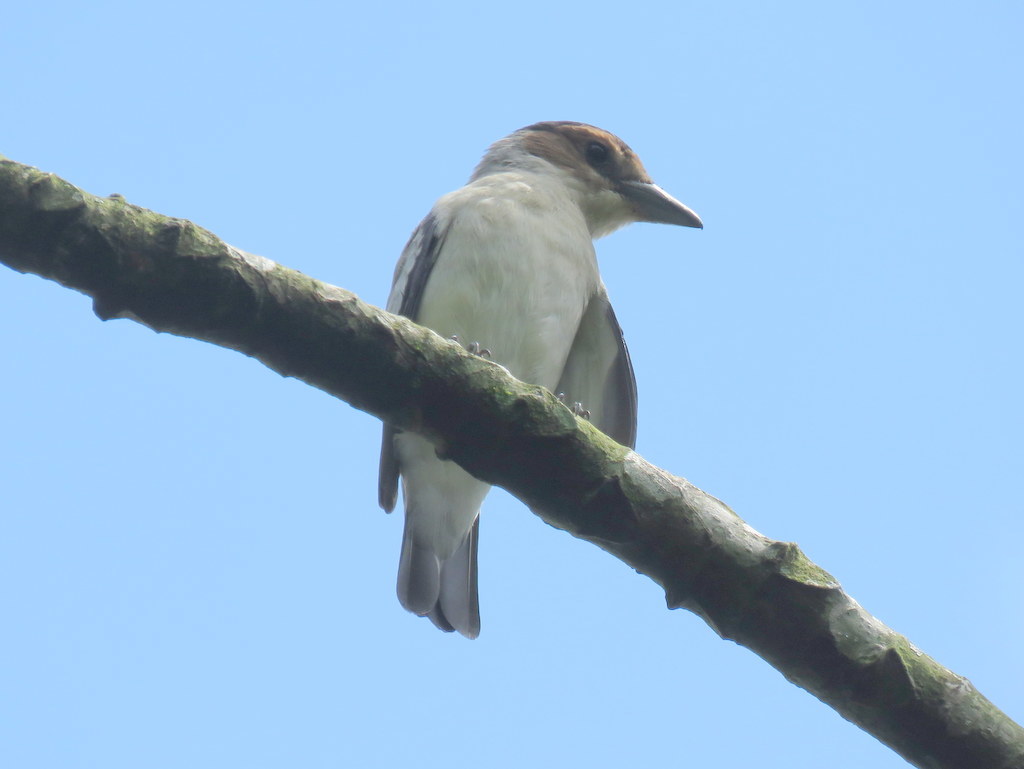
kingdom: Animalia
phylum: Chordata
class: Aves
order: Passeriformes
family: Cotingidae
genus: Tityra
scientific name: Tityra inquisitor
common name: Black-crowned tityra
